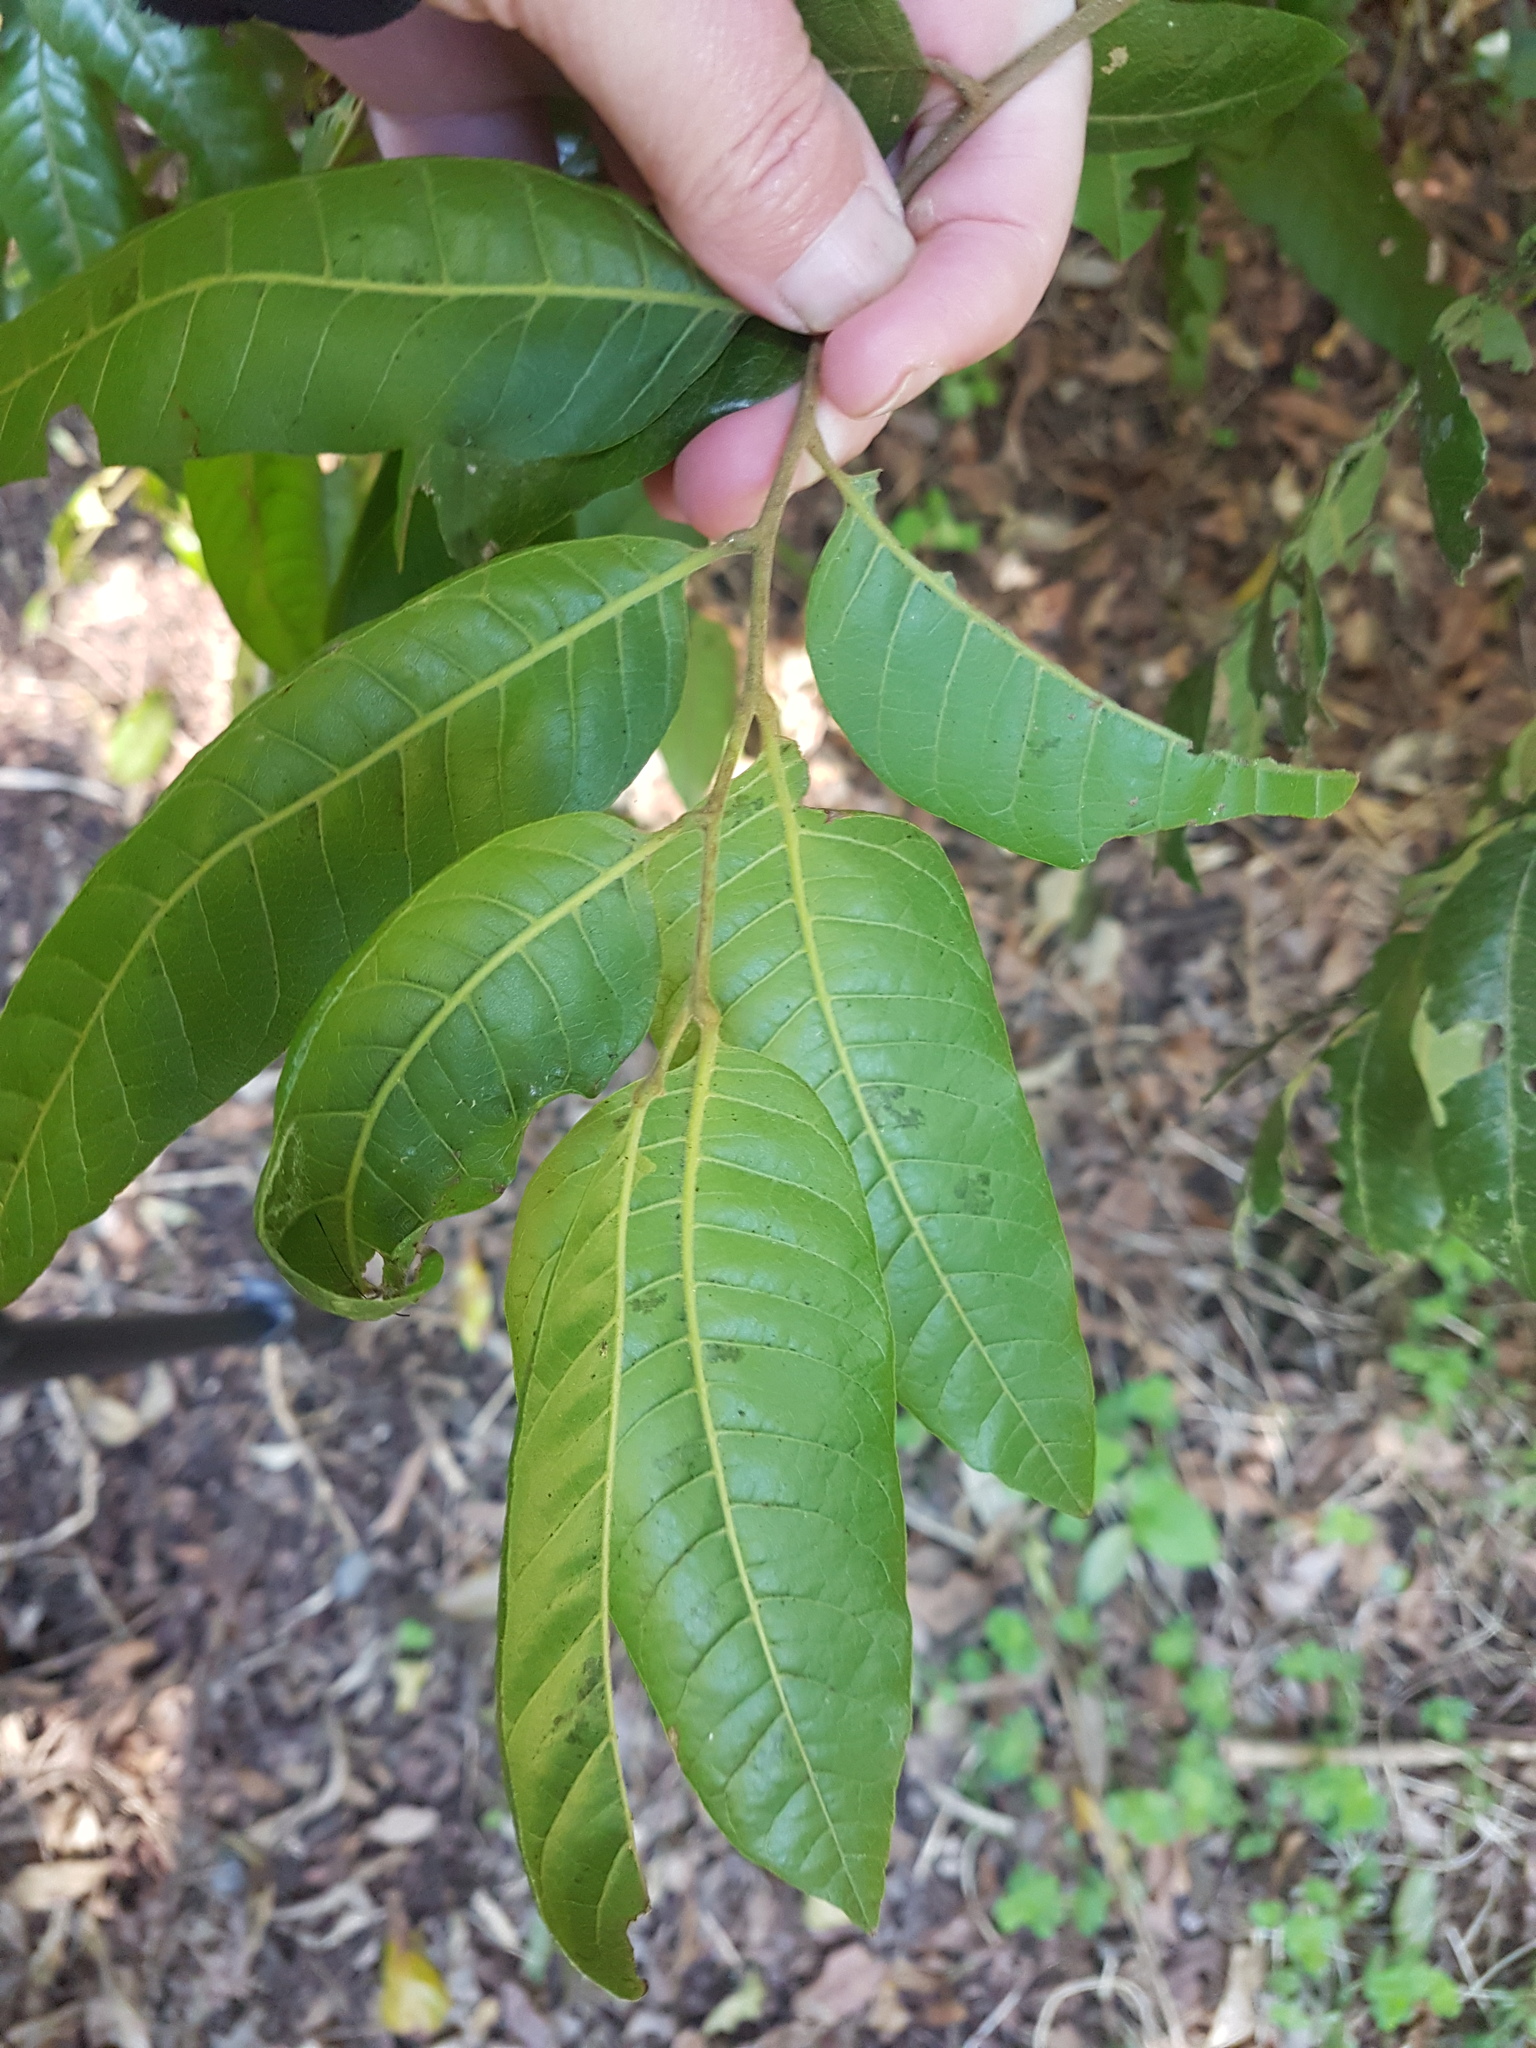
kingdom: Plantae
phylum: Tracheophyta
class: Magnoliopsida
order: Sapindales
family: Sapindaceae
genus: Alectryon
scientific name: Alectryon excelsus
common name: Three kings titoki
